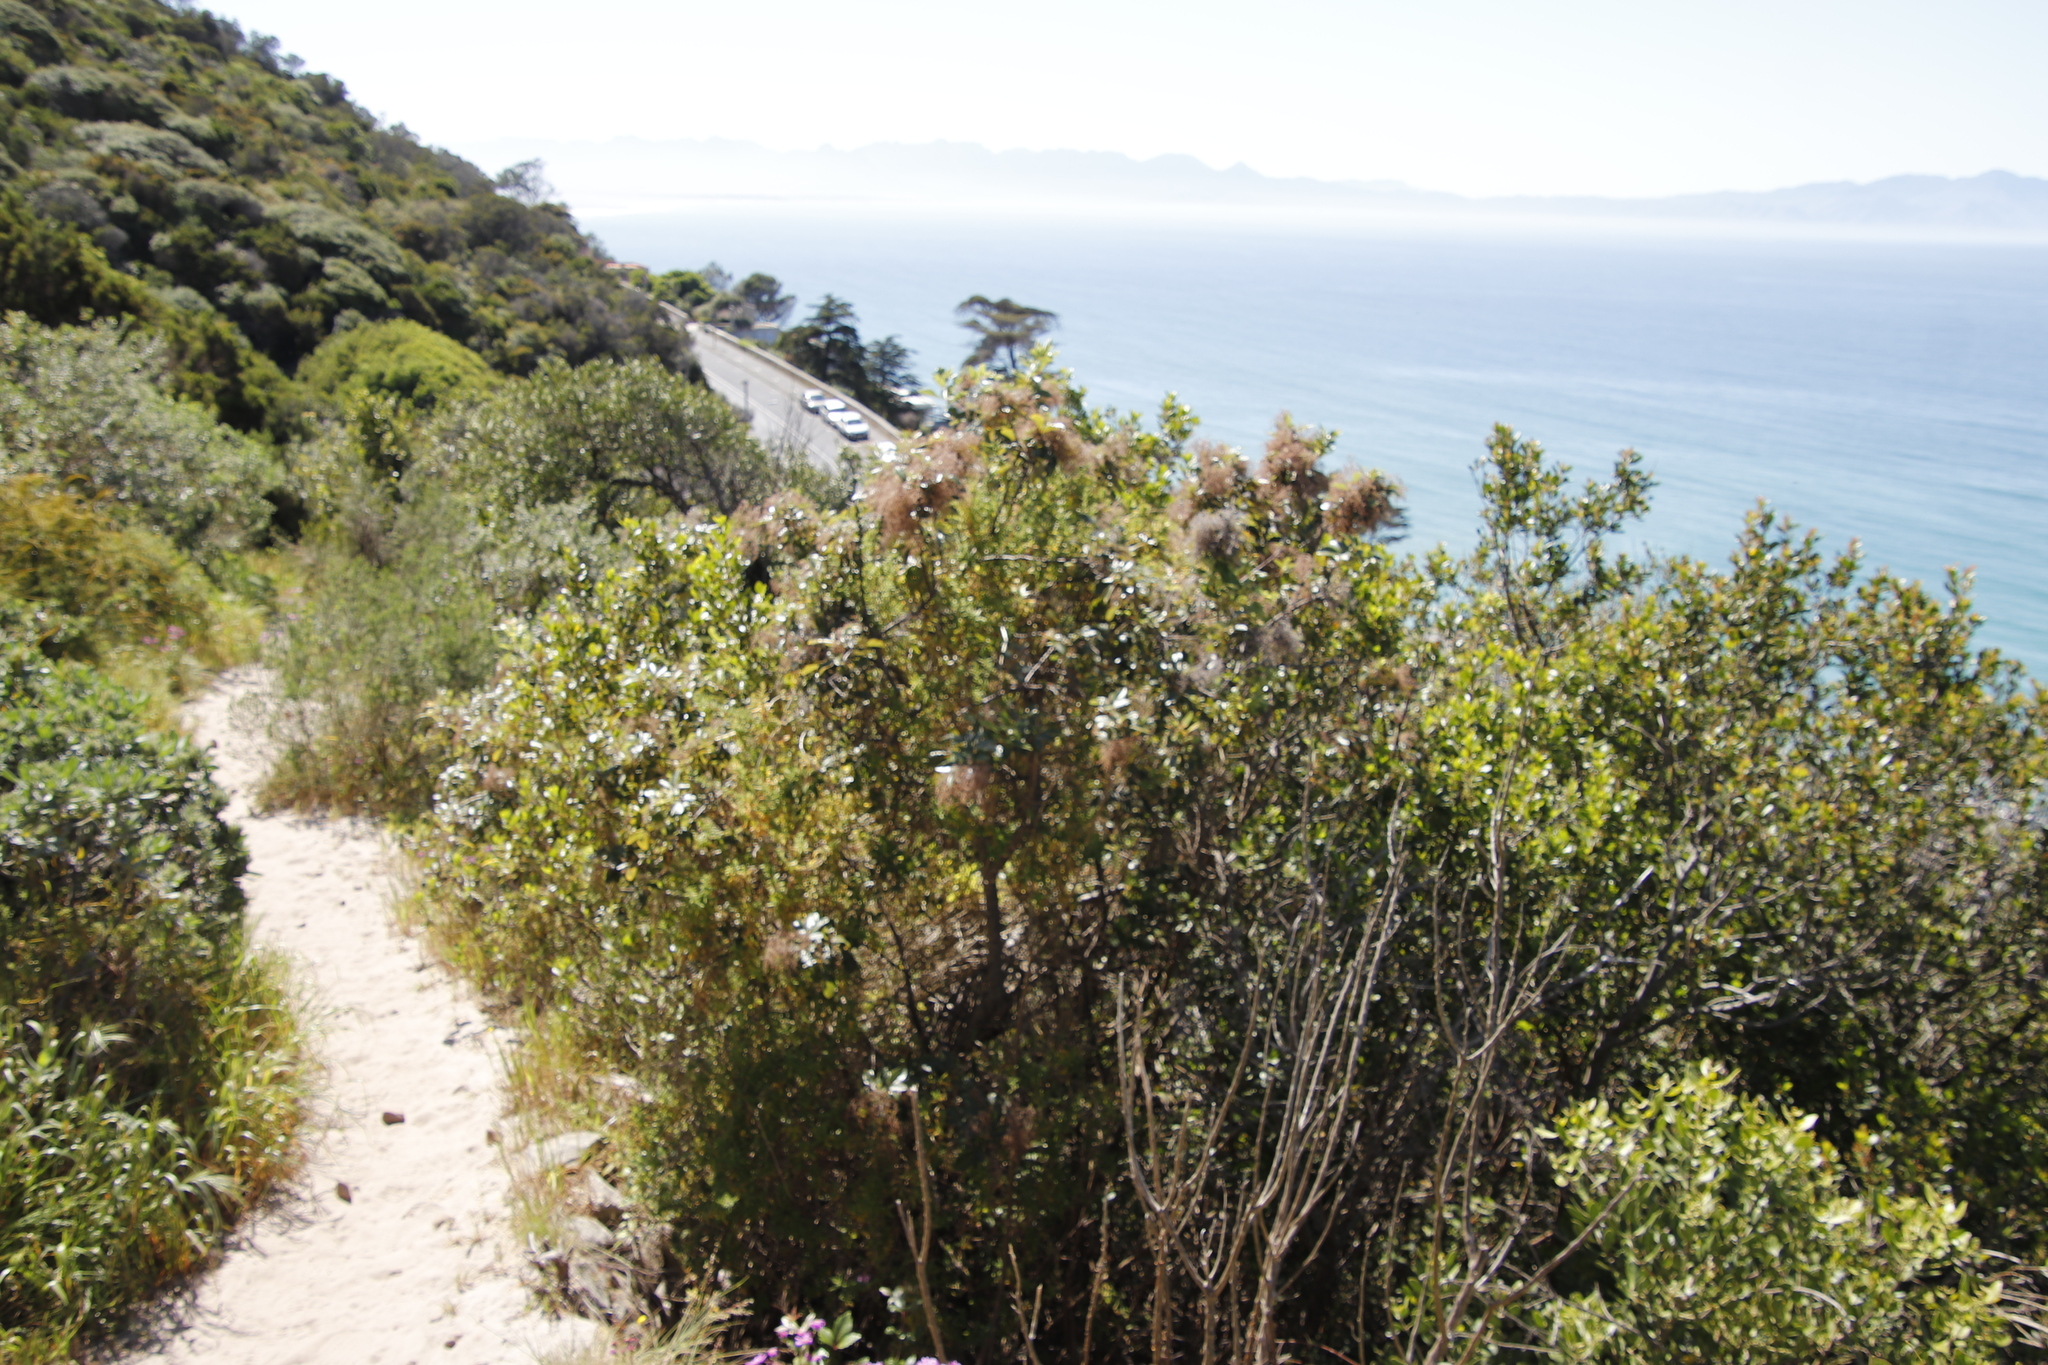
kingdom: Plantae
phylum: Tracheophyta
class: Magnoliopsida
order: Sapindales
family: Anacardiaceae
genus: Searsia
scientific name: Searsia tomentosa
